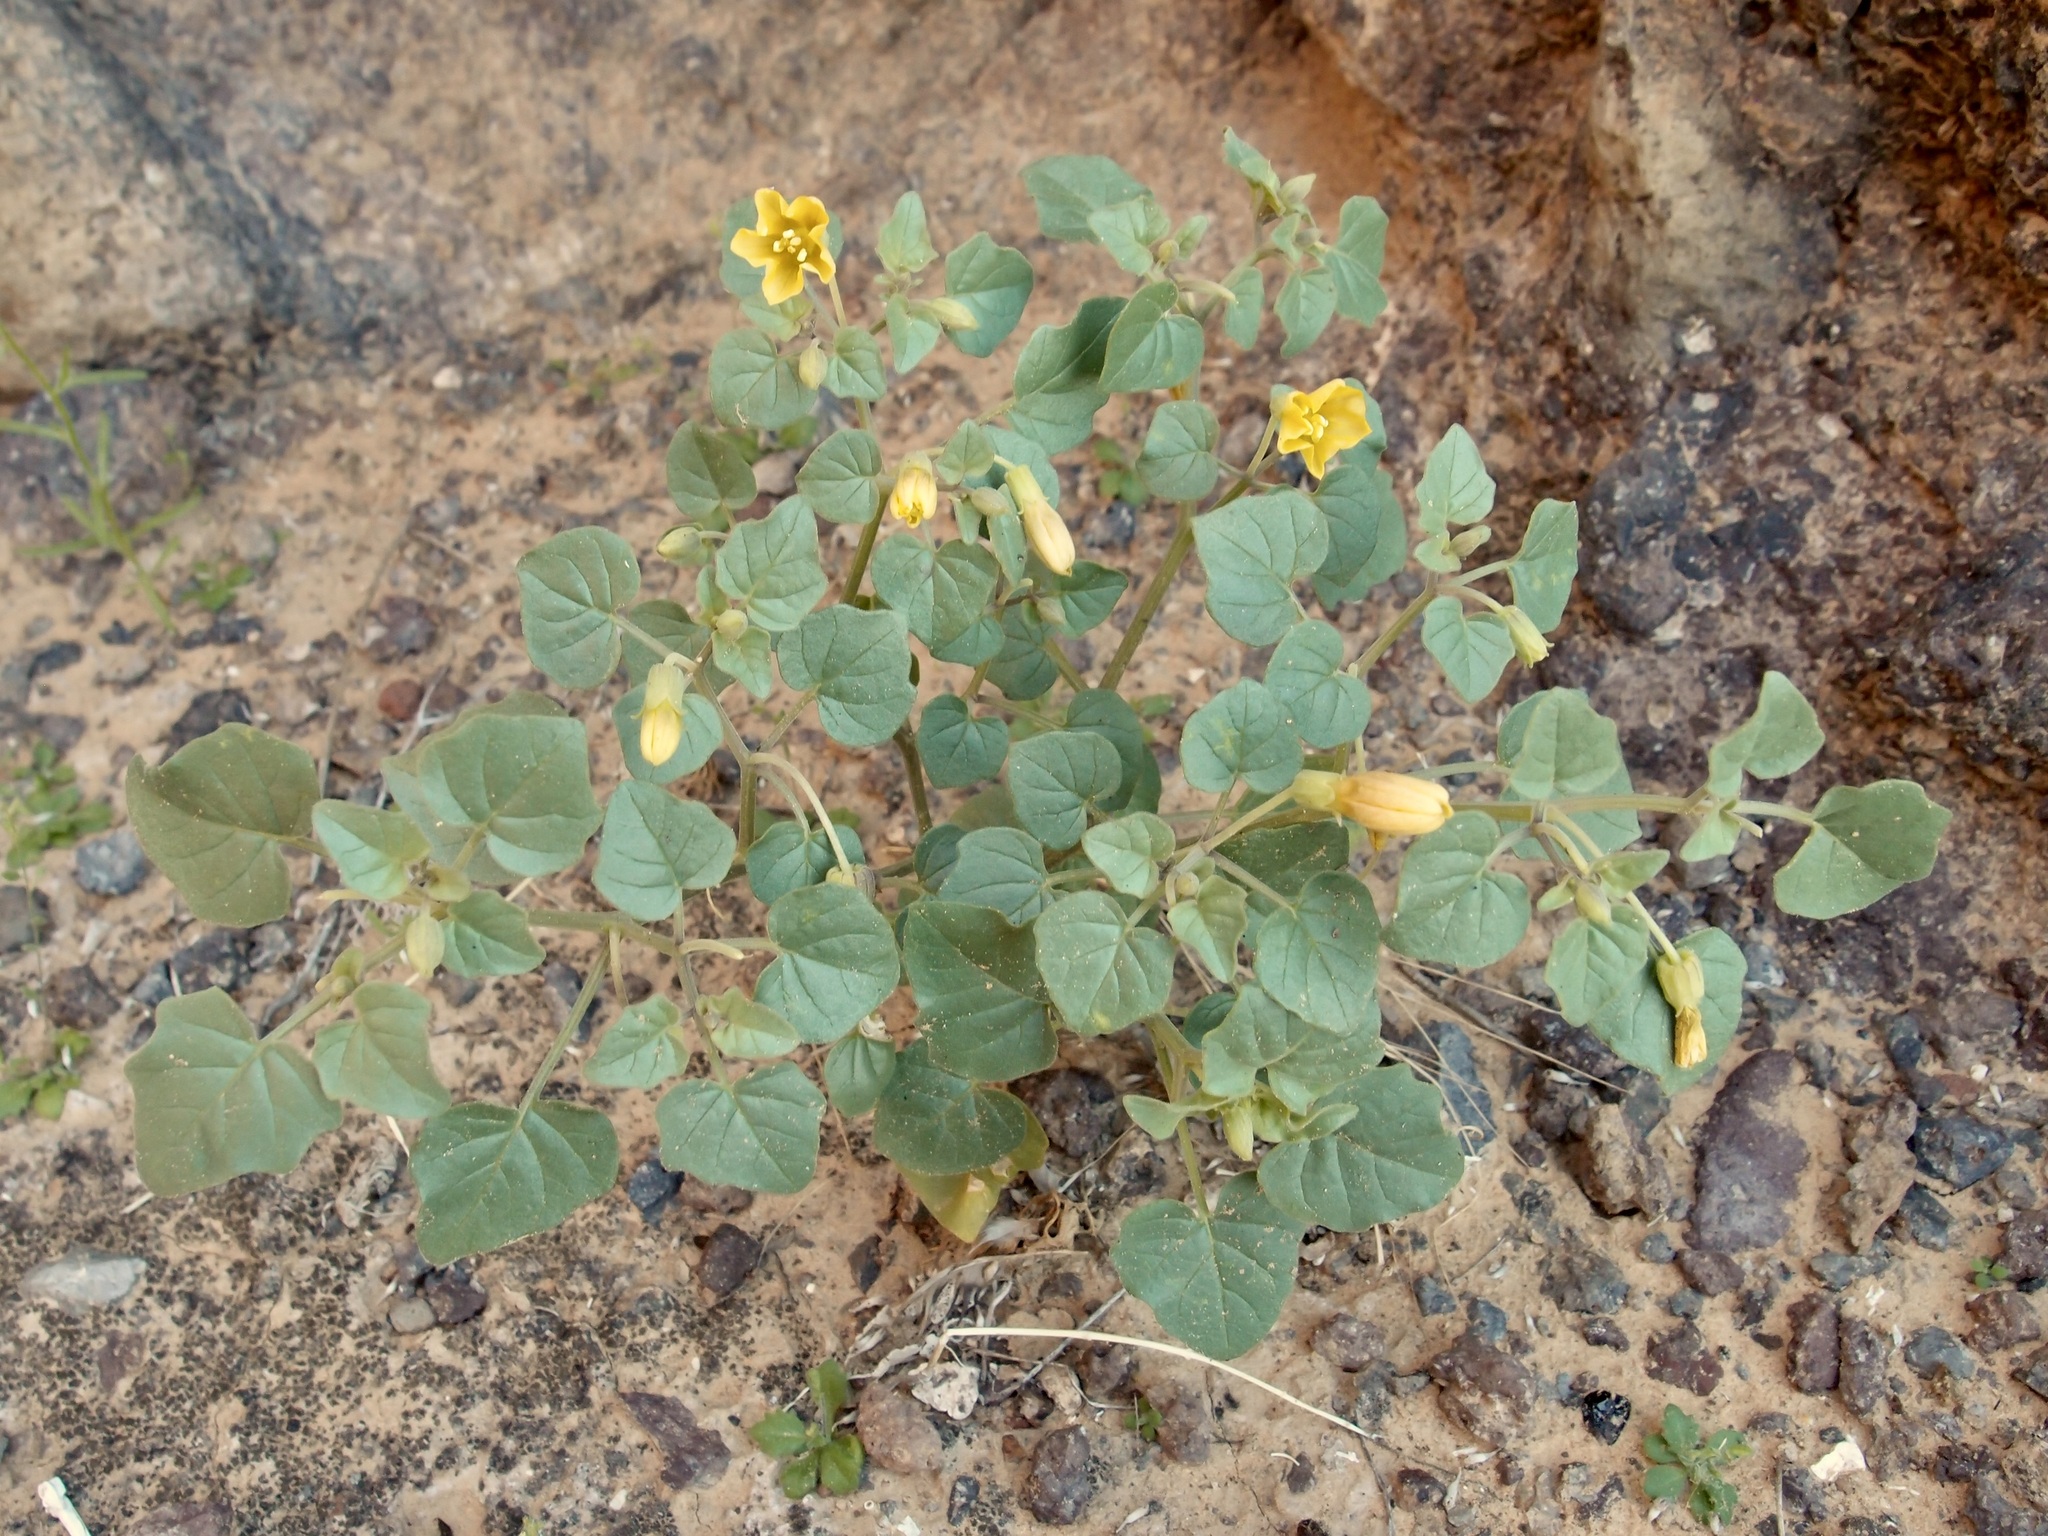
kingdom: Plantae
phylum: Tracheophyta
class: Magnoliopsida
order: Solanales
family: Solanaceae
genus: Physalis
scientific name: Physalis crassifolia
